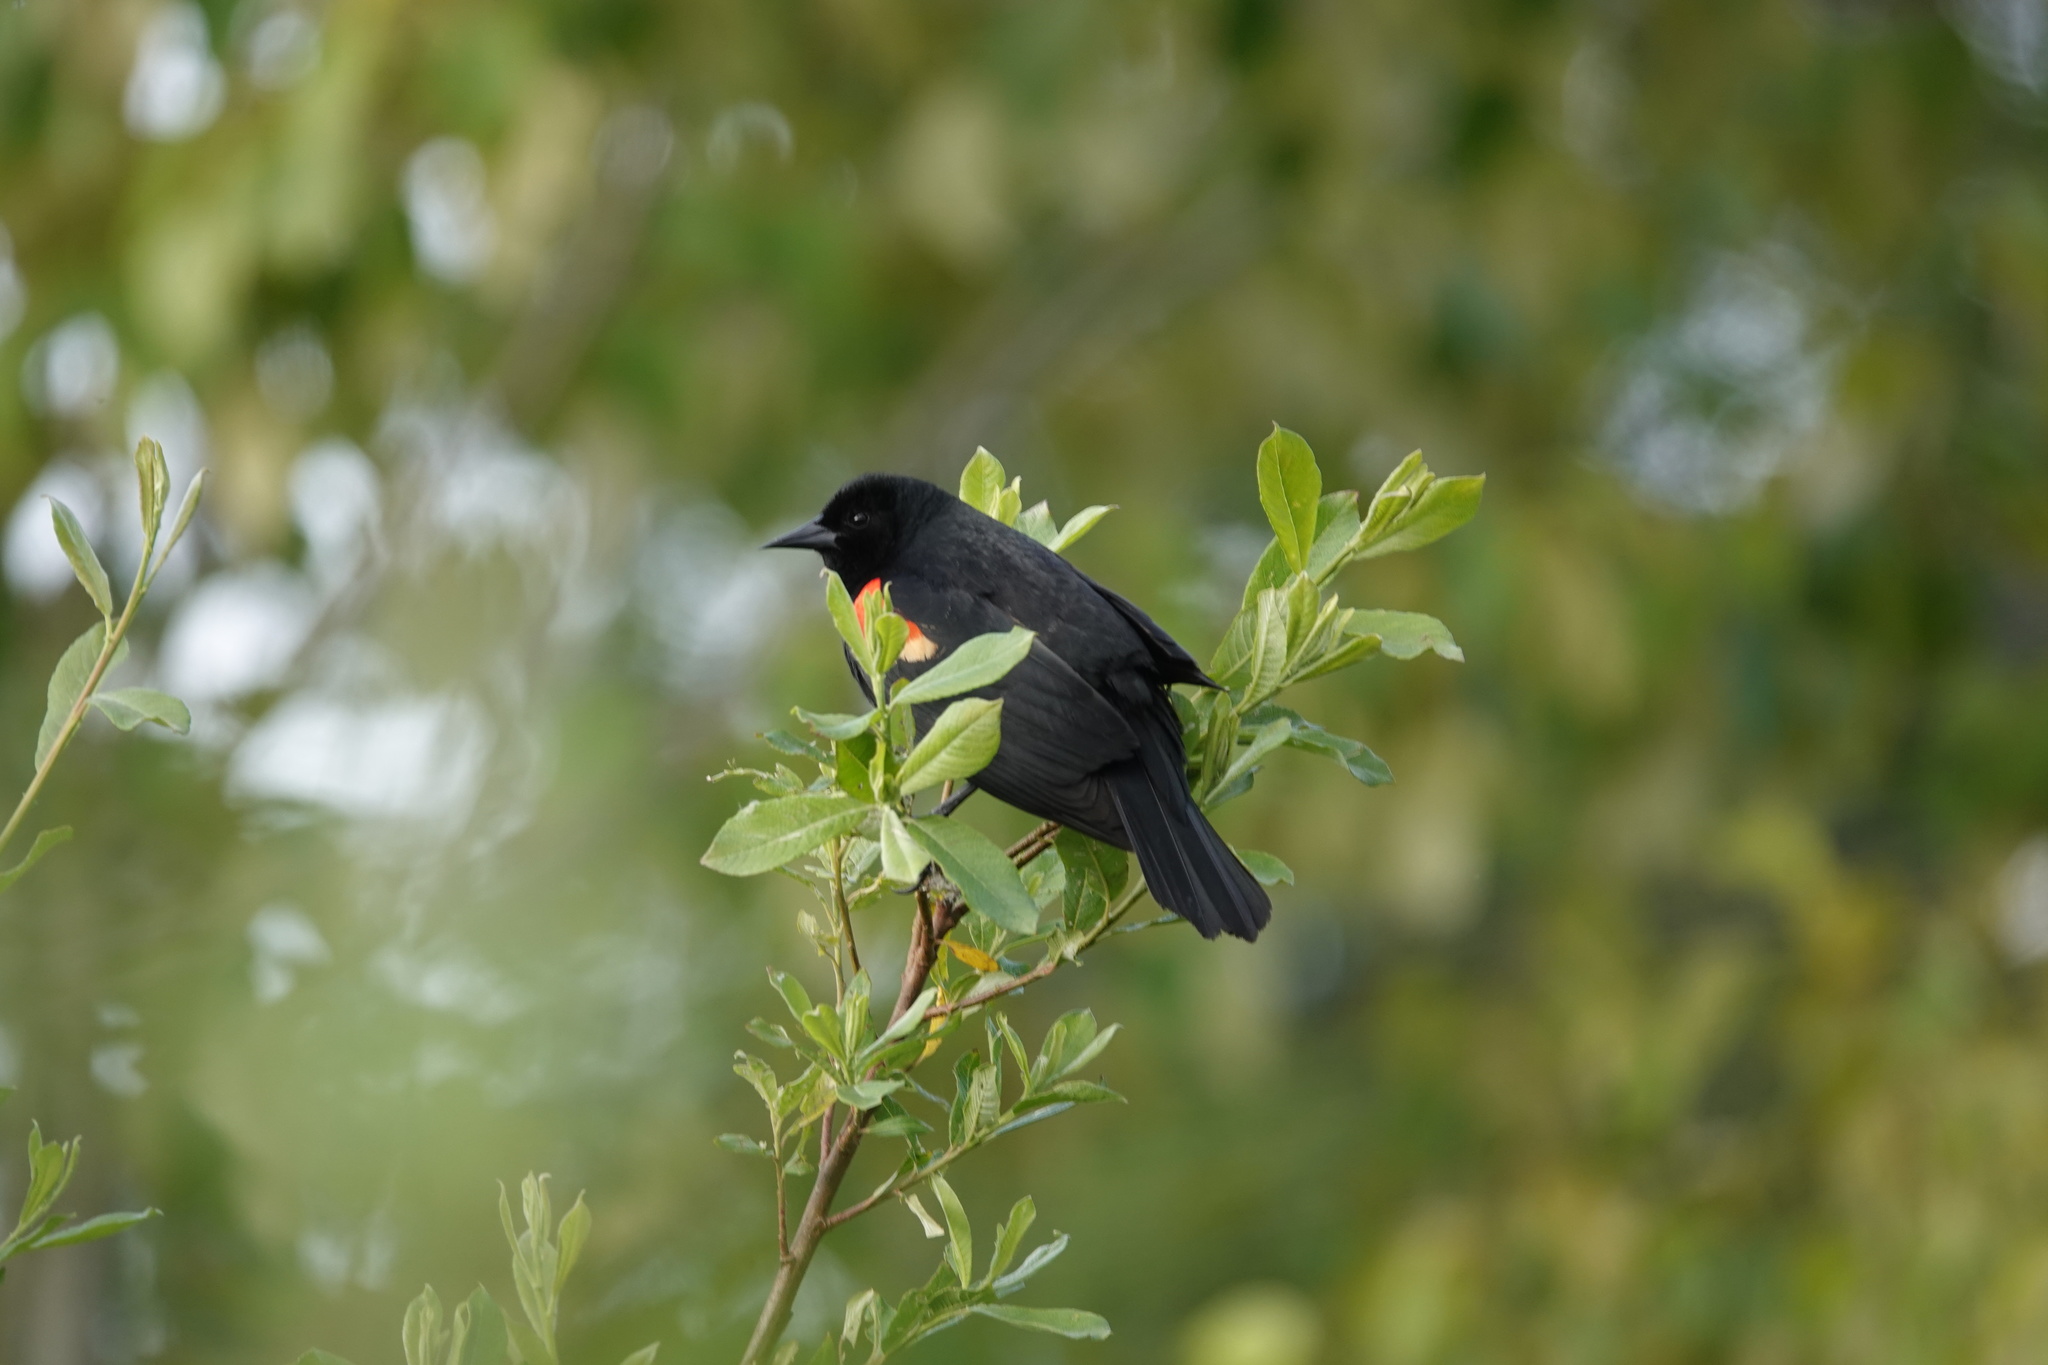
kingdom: Animalia
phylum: Chordata
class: Aves
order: Passeriformes
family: Icteridae
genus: Agelaius
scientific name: Agelaius phoeniceus
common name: Red-winged blackbird
